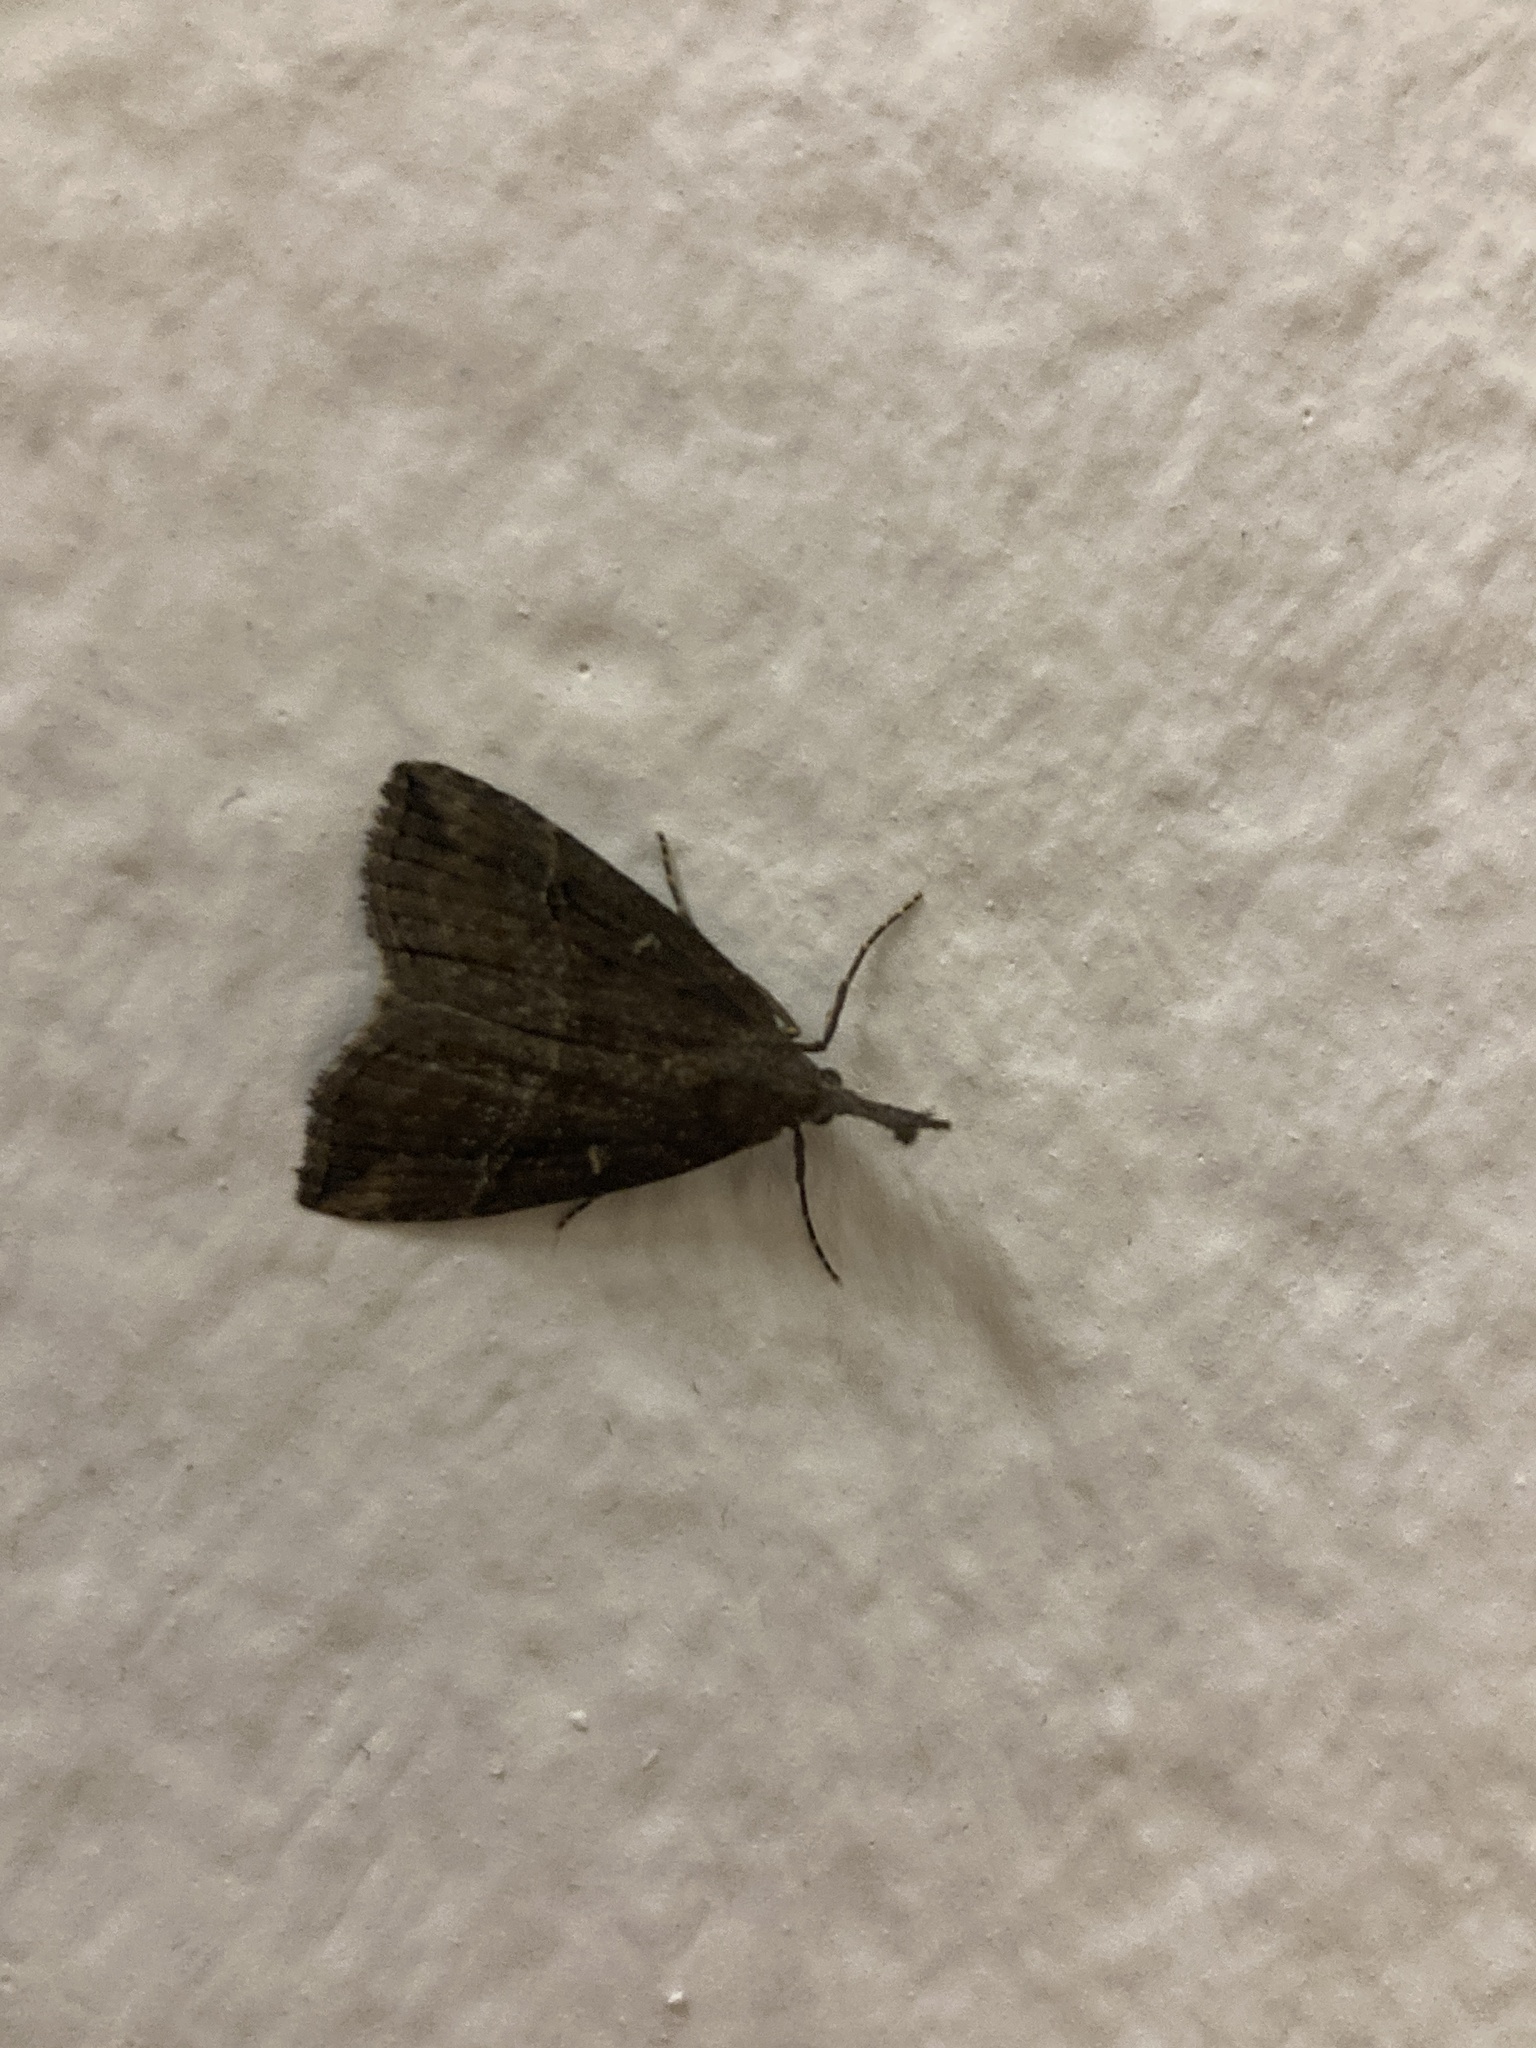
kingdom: Animalia
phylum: Arthropoda
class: Insecta
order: Lepidoptera
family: Erebidae
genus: Hypena
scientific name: Hypena rostralis
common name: Buttoned snout
